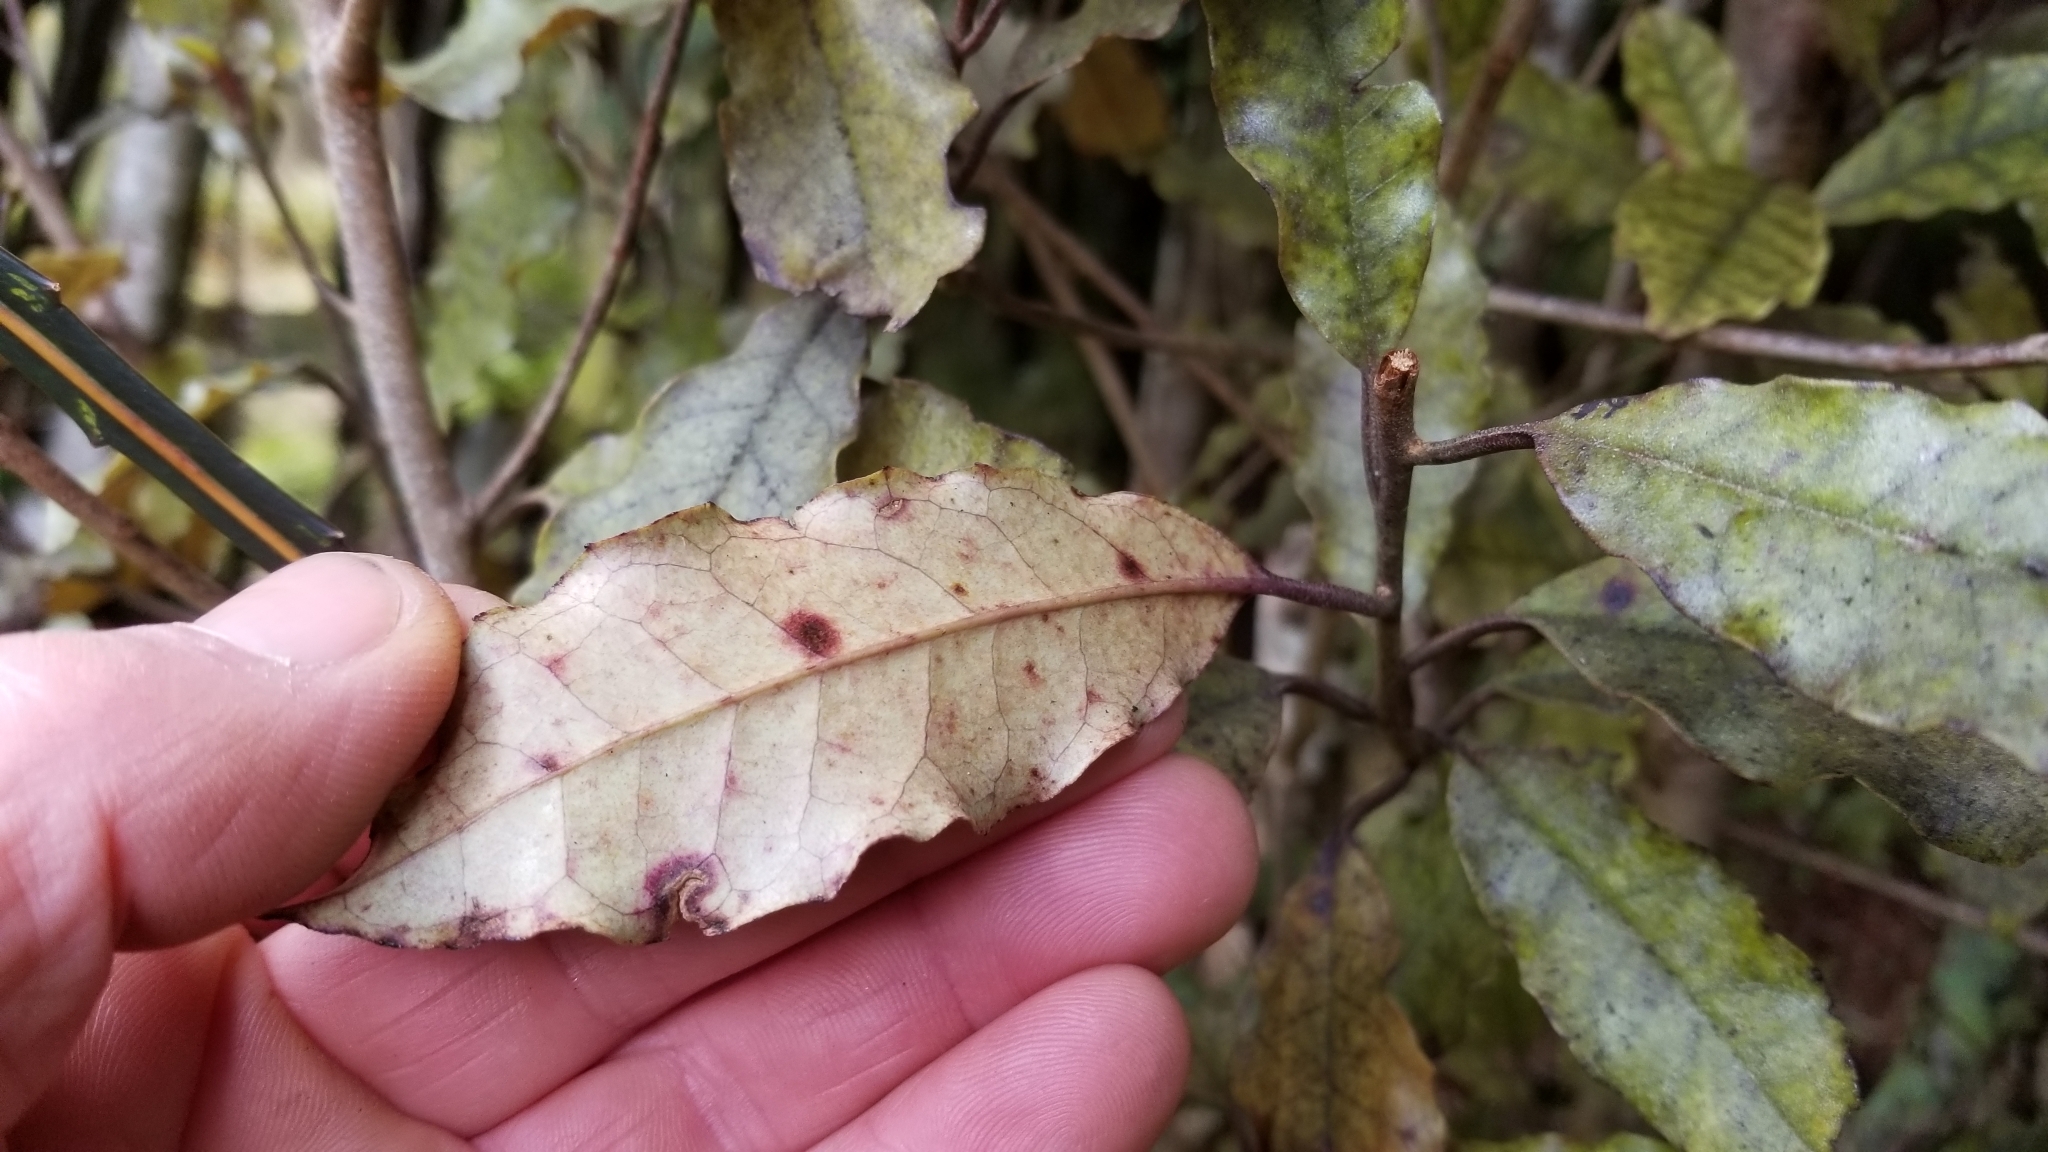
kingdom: Plantae
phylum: Tracheophyta
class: Magnoliopsida
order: Paracryphiales
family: Paracryphiaceae
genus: Quintinia
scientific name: Quintinia serrata
